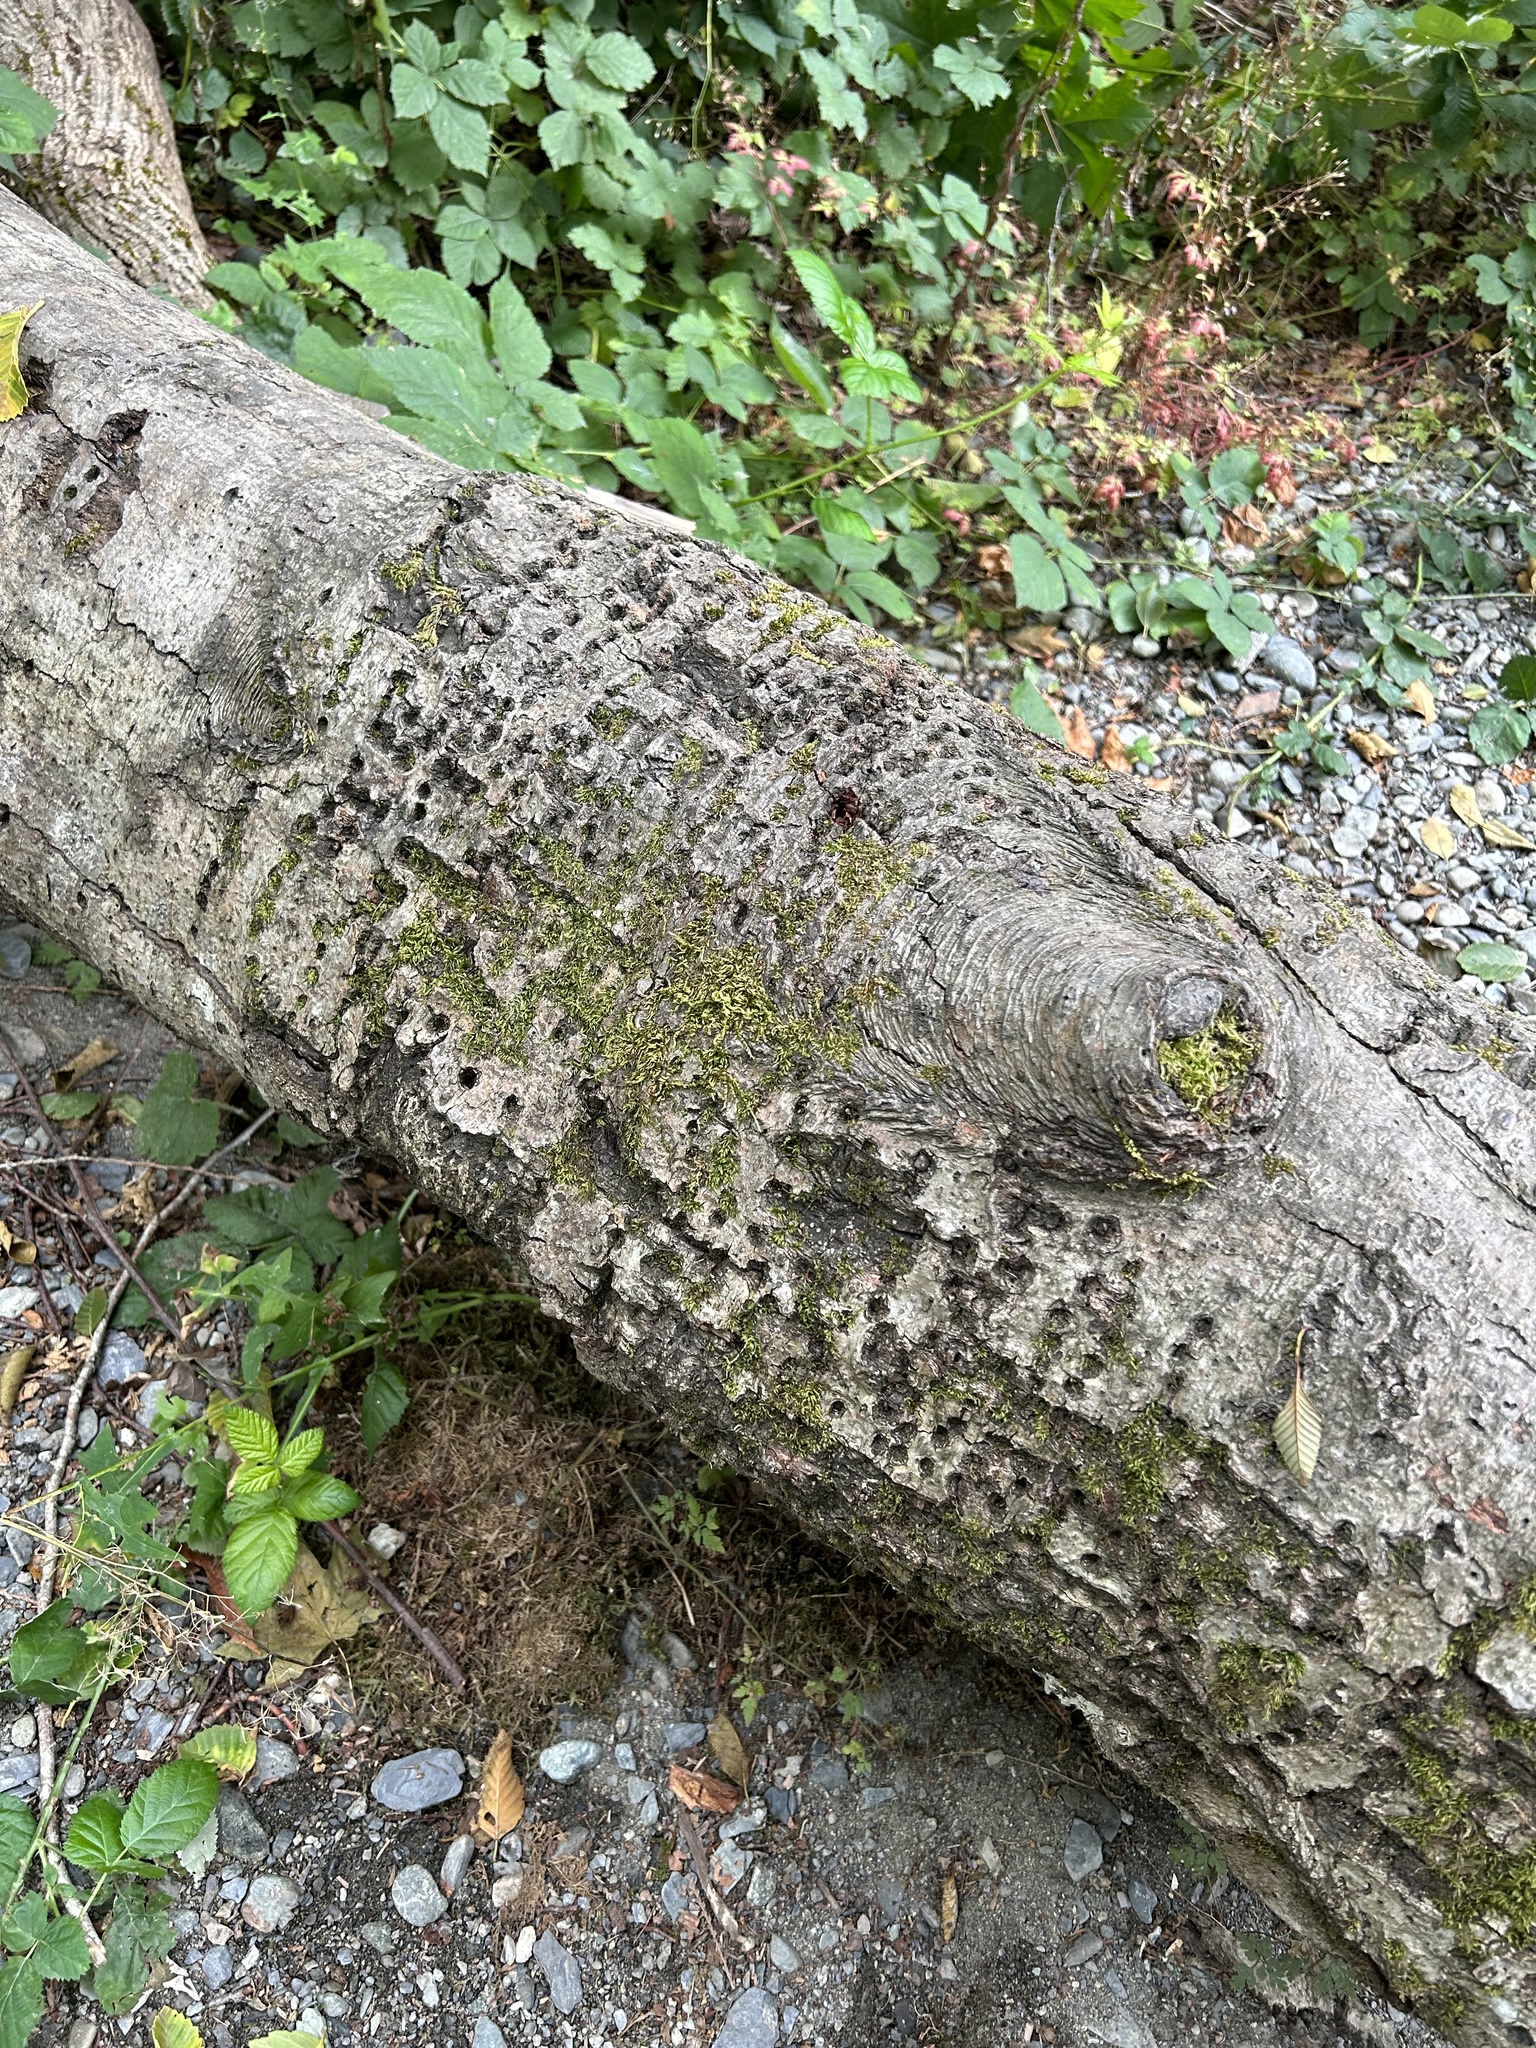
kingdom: Animalia
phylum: Chordata
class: Aves
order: Piciformes
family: Picidae
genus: Sphyrapicus
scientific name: Sphyrapicus ruber
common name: Red-breasted sapsucker
